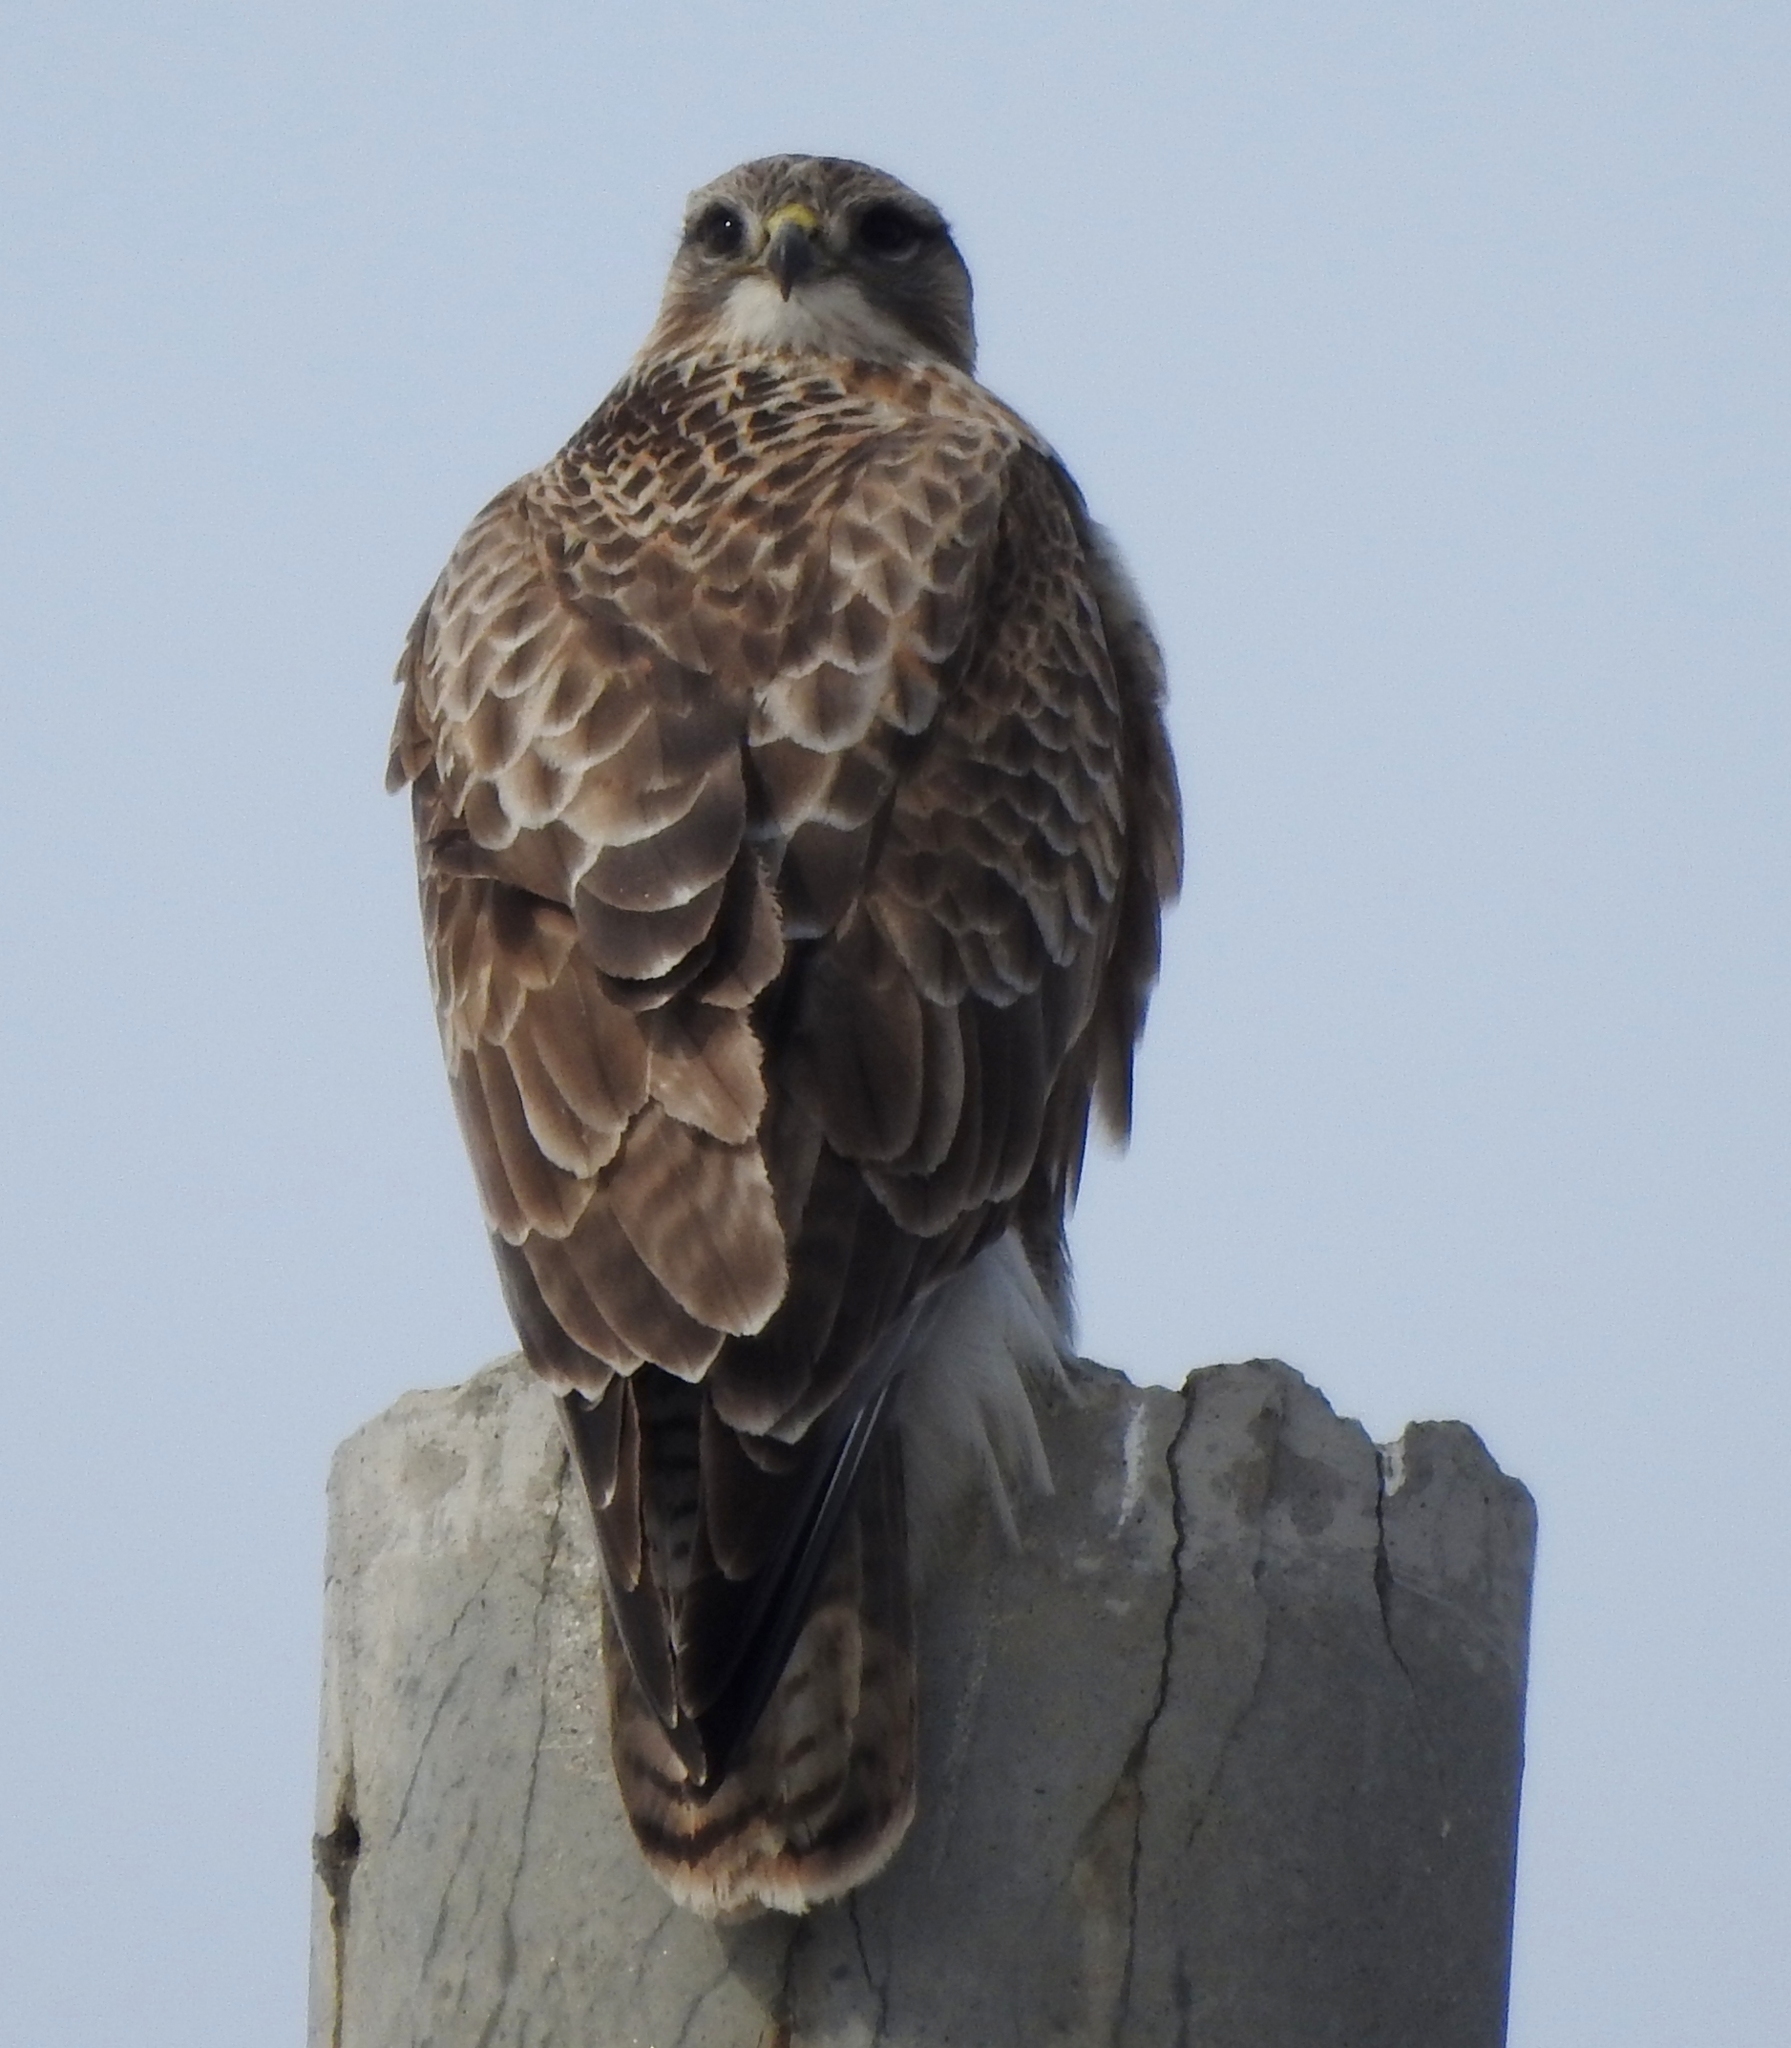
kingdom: Animalia
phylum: Chordata
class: Aves
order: Accipitriformes
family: Accipitridae
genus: Buteo
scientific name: Buteo hemilasius
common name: Upland buzzard
